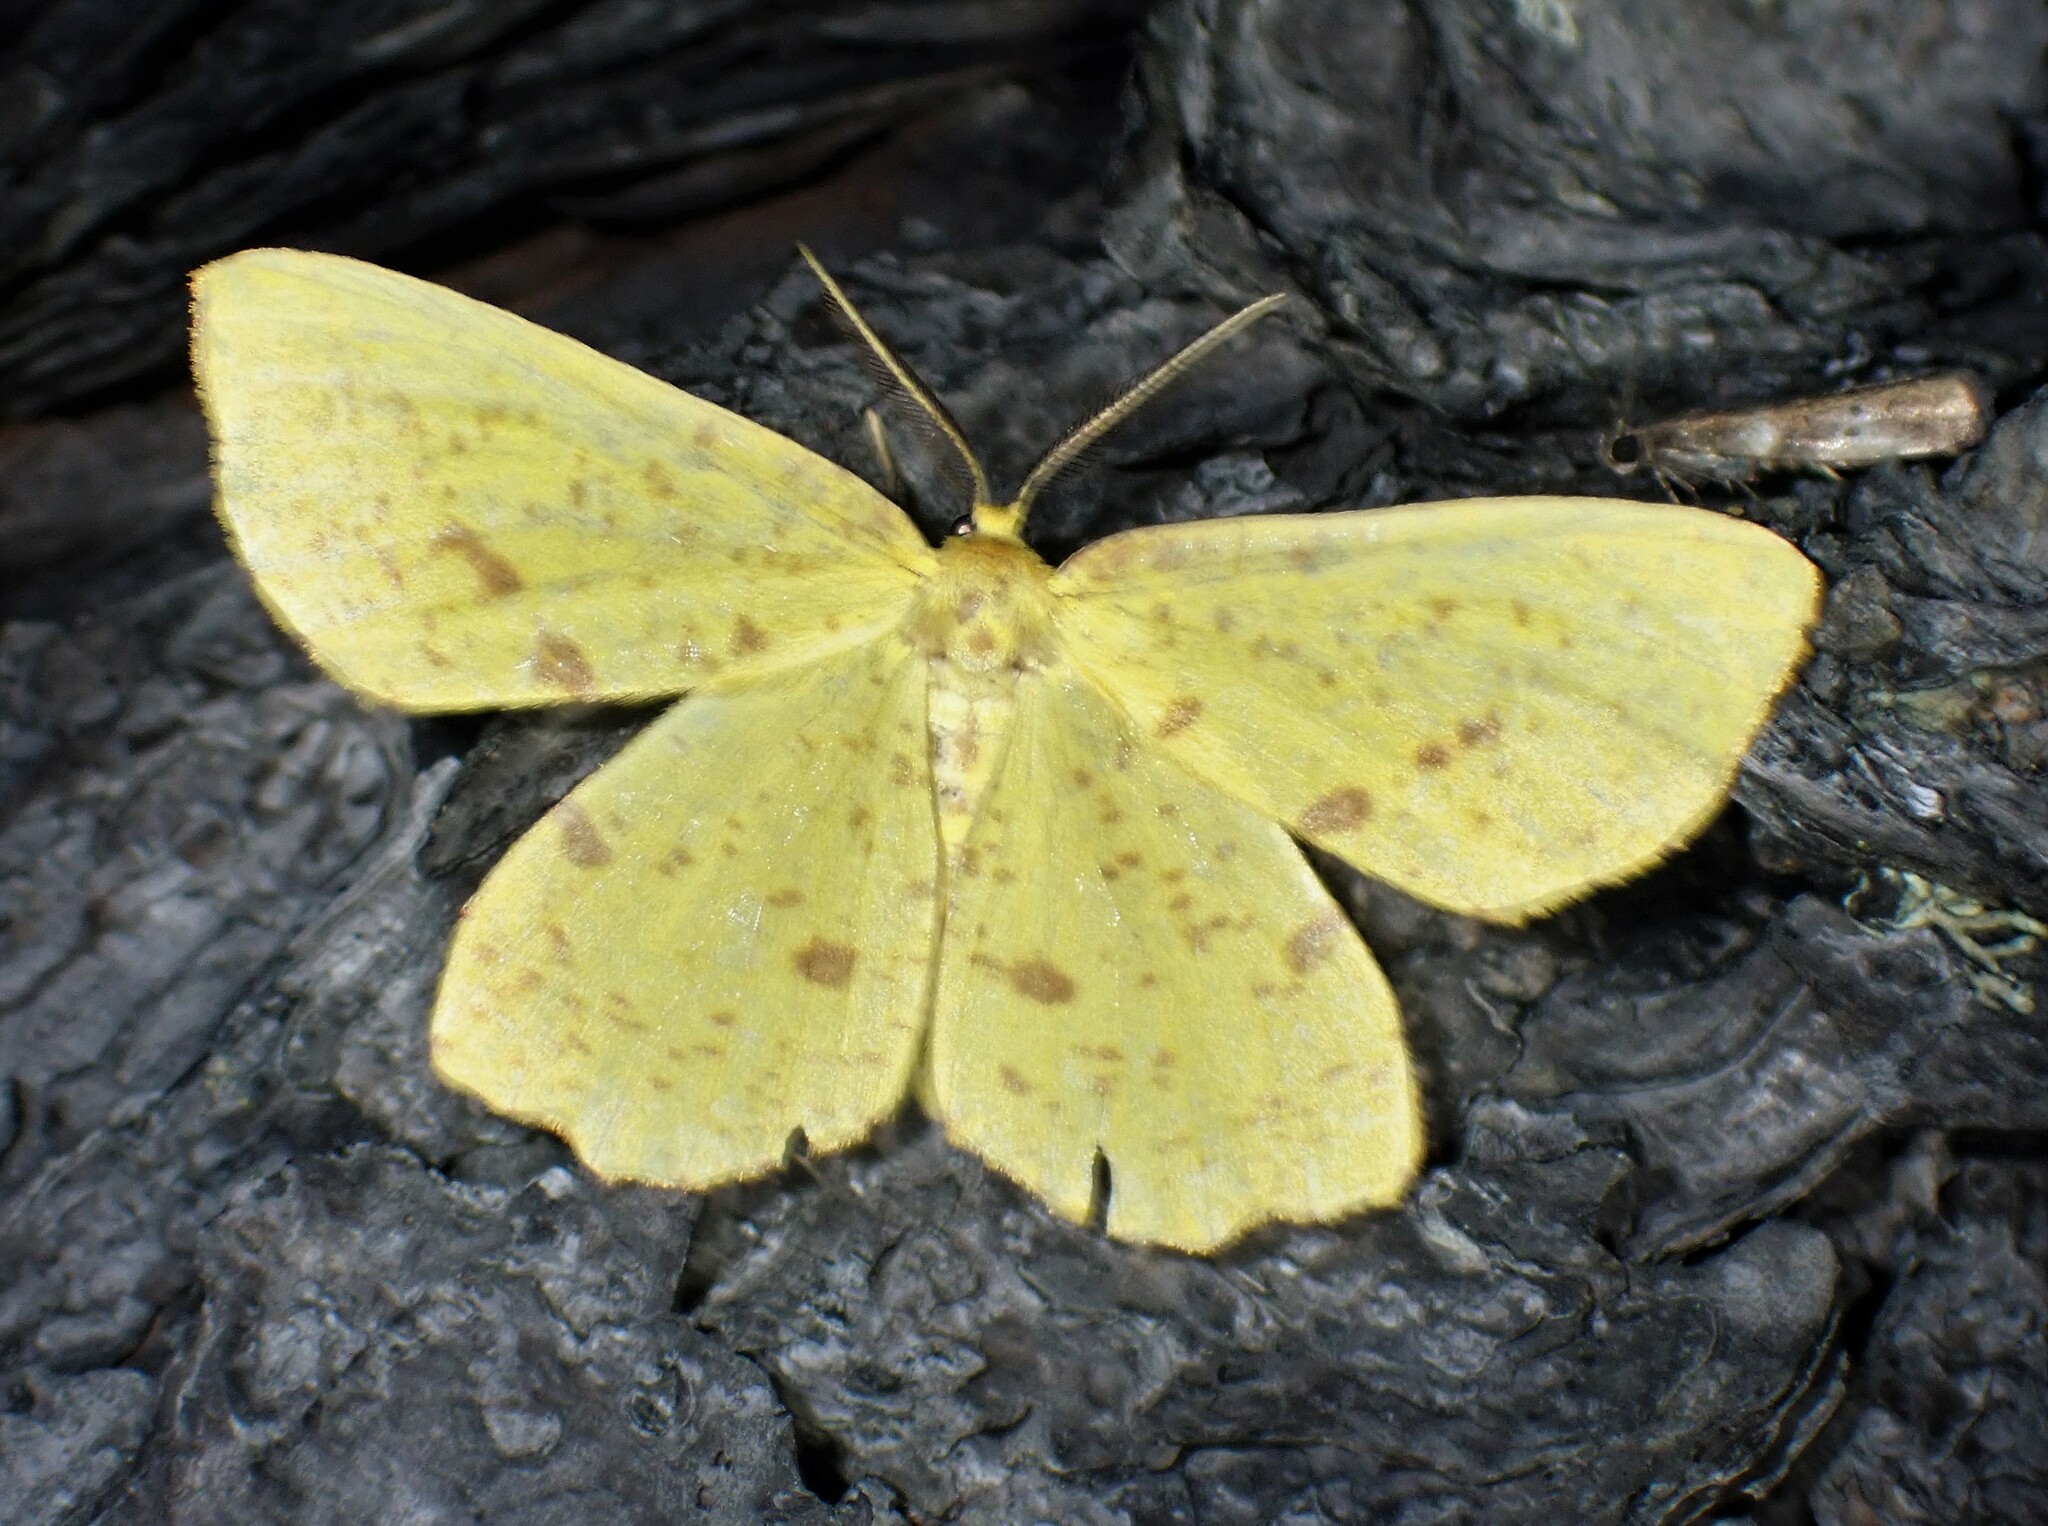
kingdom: Animalia
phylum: Arthropoda
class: Insecta
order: Lepidoptera
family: Geometridae
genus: Xanthotype
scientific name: Xanthotype
